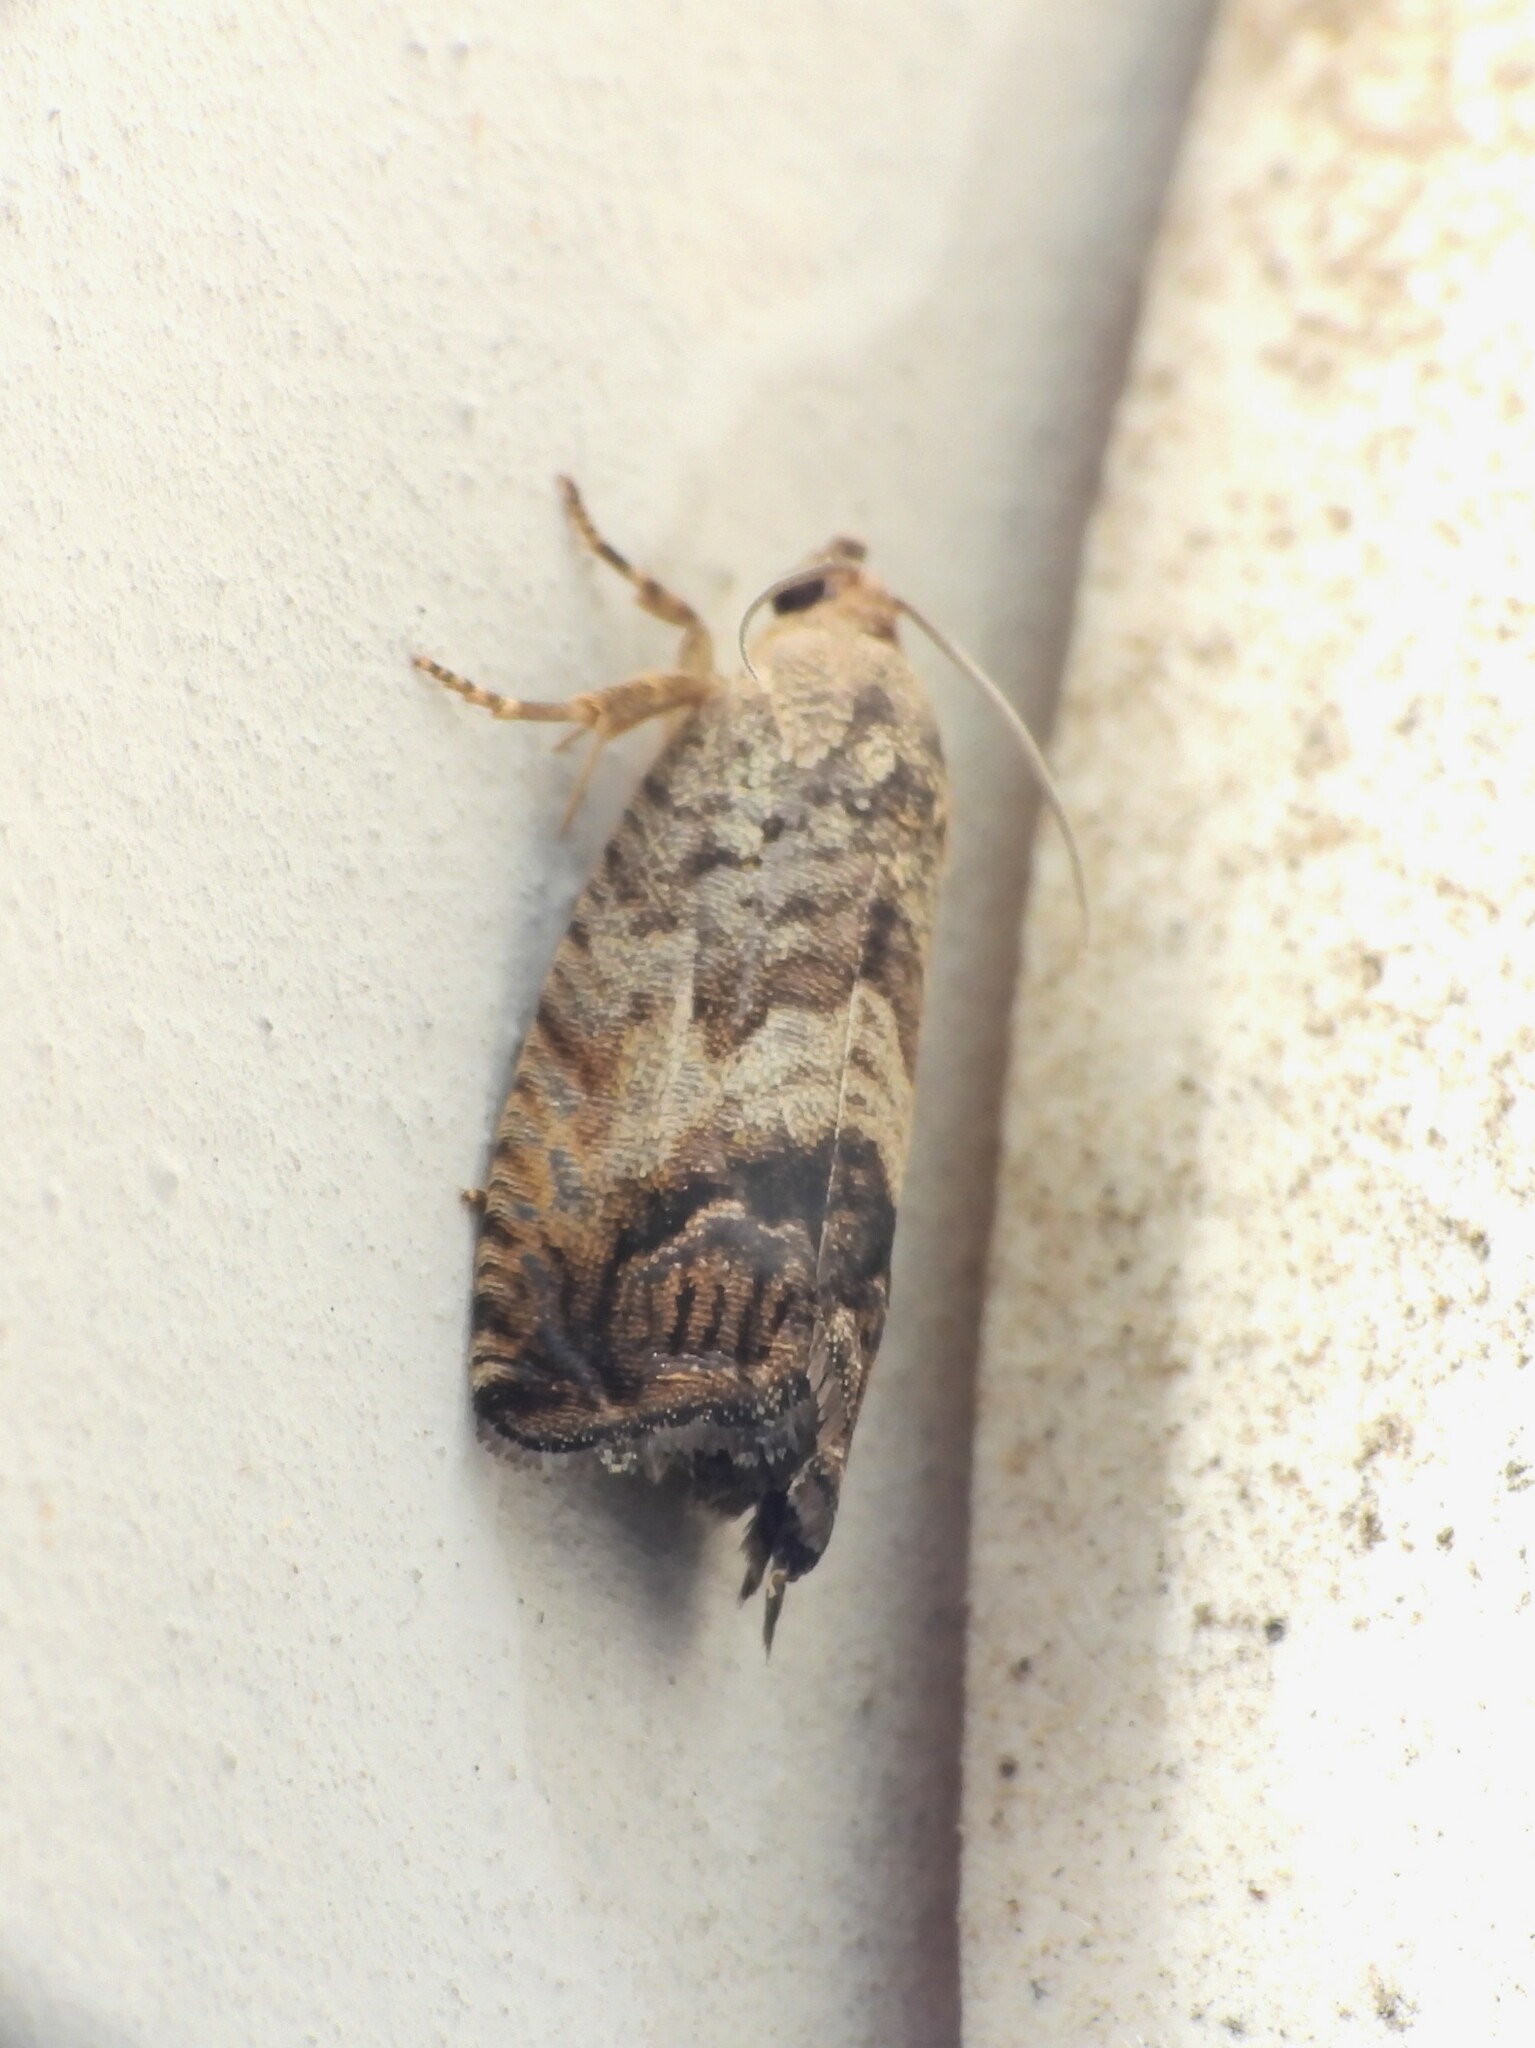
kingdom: Animalia
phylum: Arthropoda
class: Insecta
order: Lepidoptera
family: Tortricidae
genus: Cydia
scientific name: Cydia splendana
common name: De: kastanienwickler, eichenwickler es: oruga de la castaña fr: carpocapse des châtaignes it: cidia o tortrice tardiva delle castagne pt: bichado das castanhas gb: acorn moth, chestnut fruit tortrix
